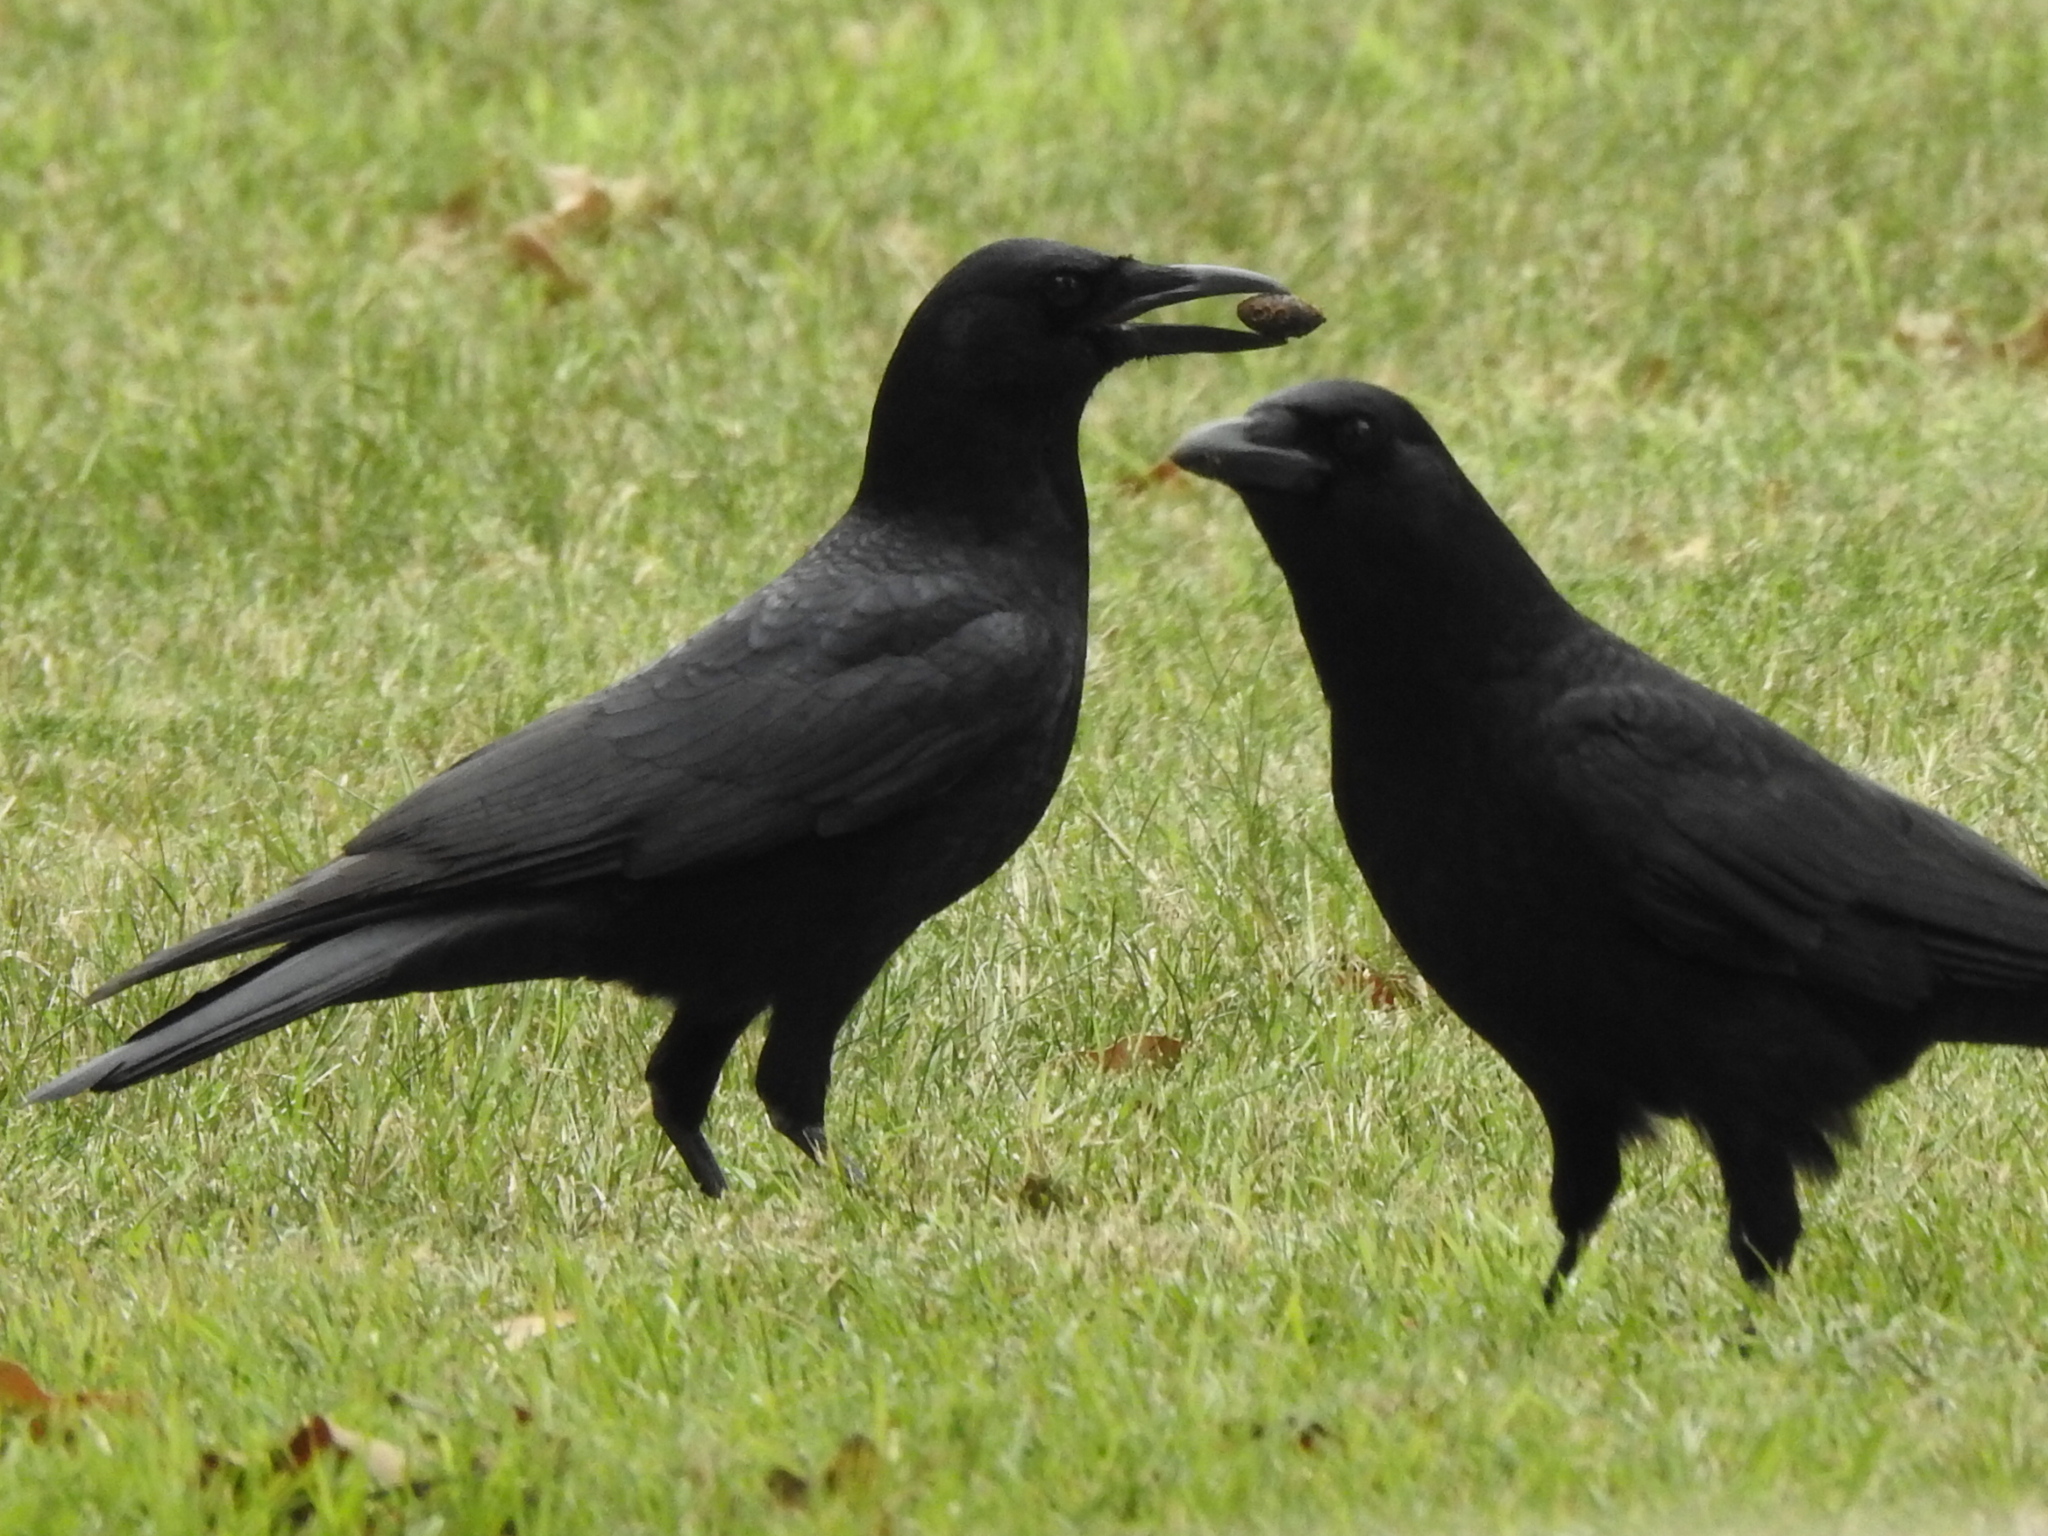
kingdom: Animalia
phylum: Chordata
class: Aves
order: Passeriformes
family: Corvidae
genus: Corvus
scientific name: Corvus brachyrhynchos
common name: American crow
